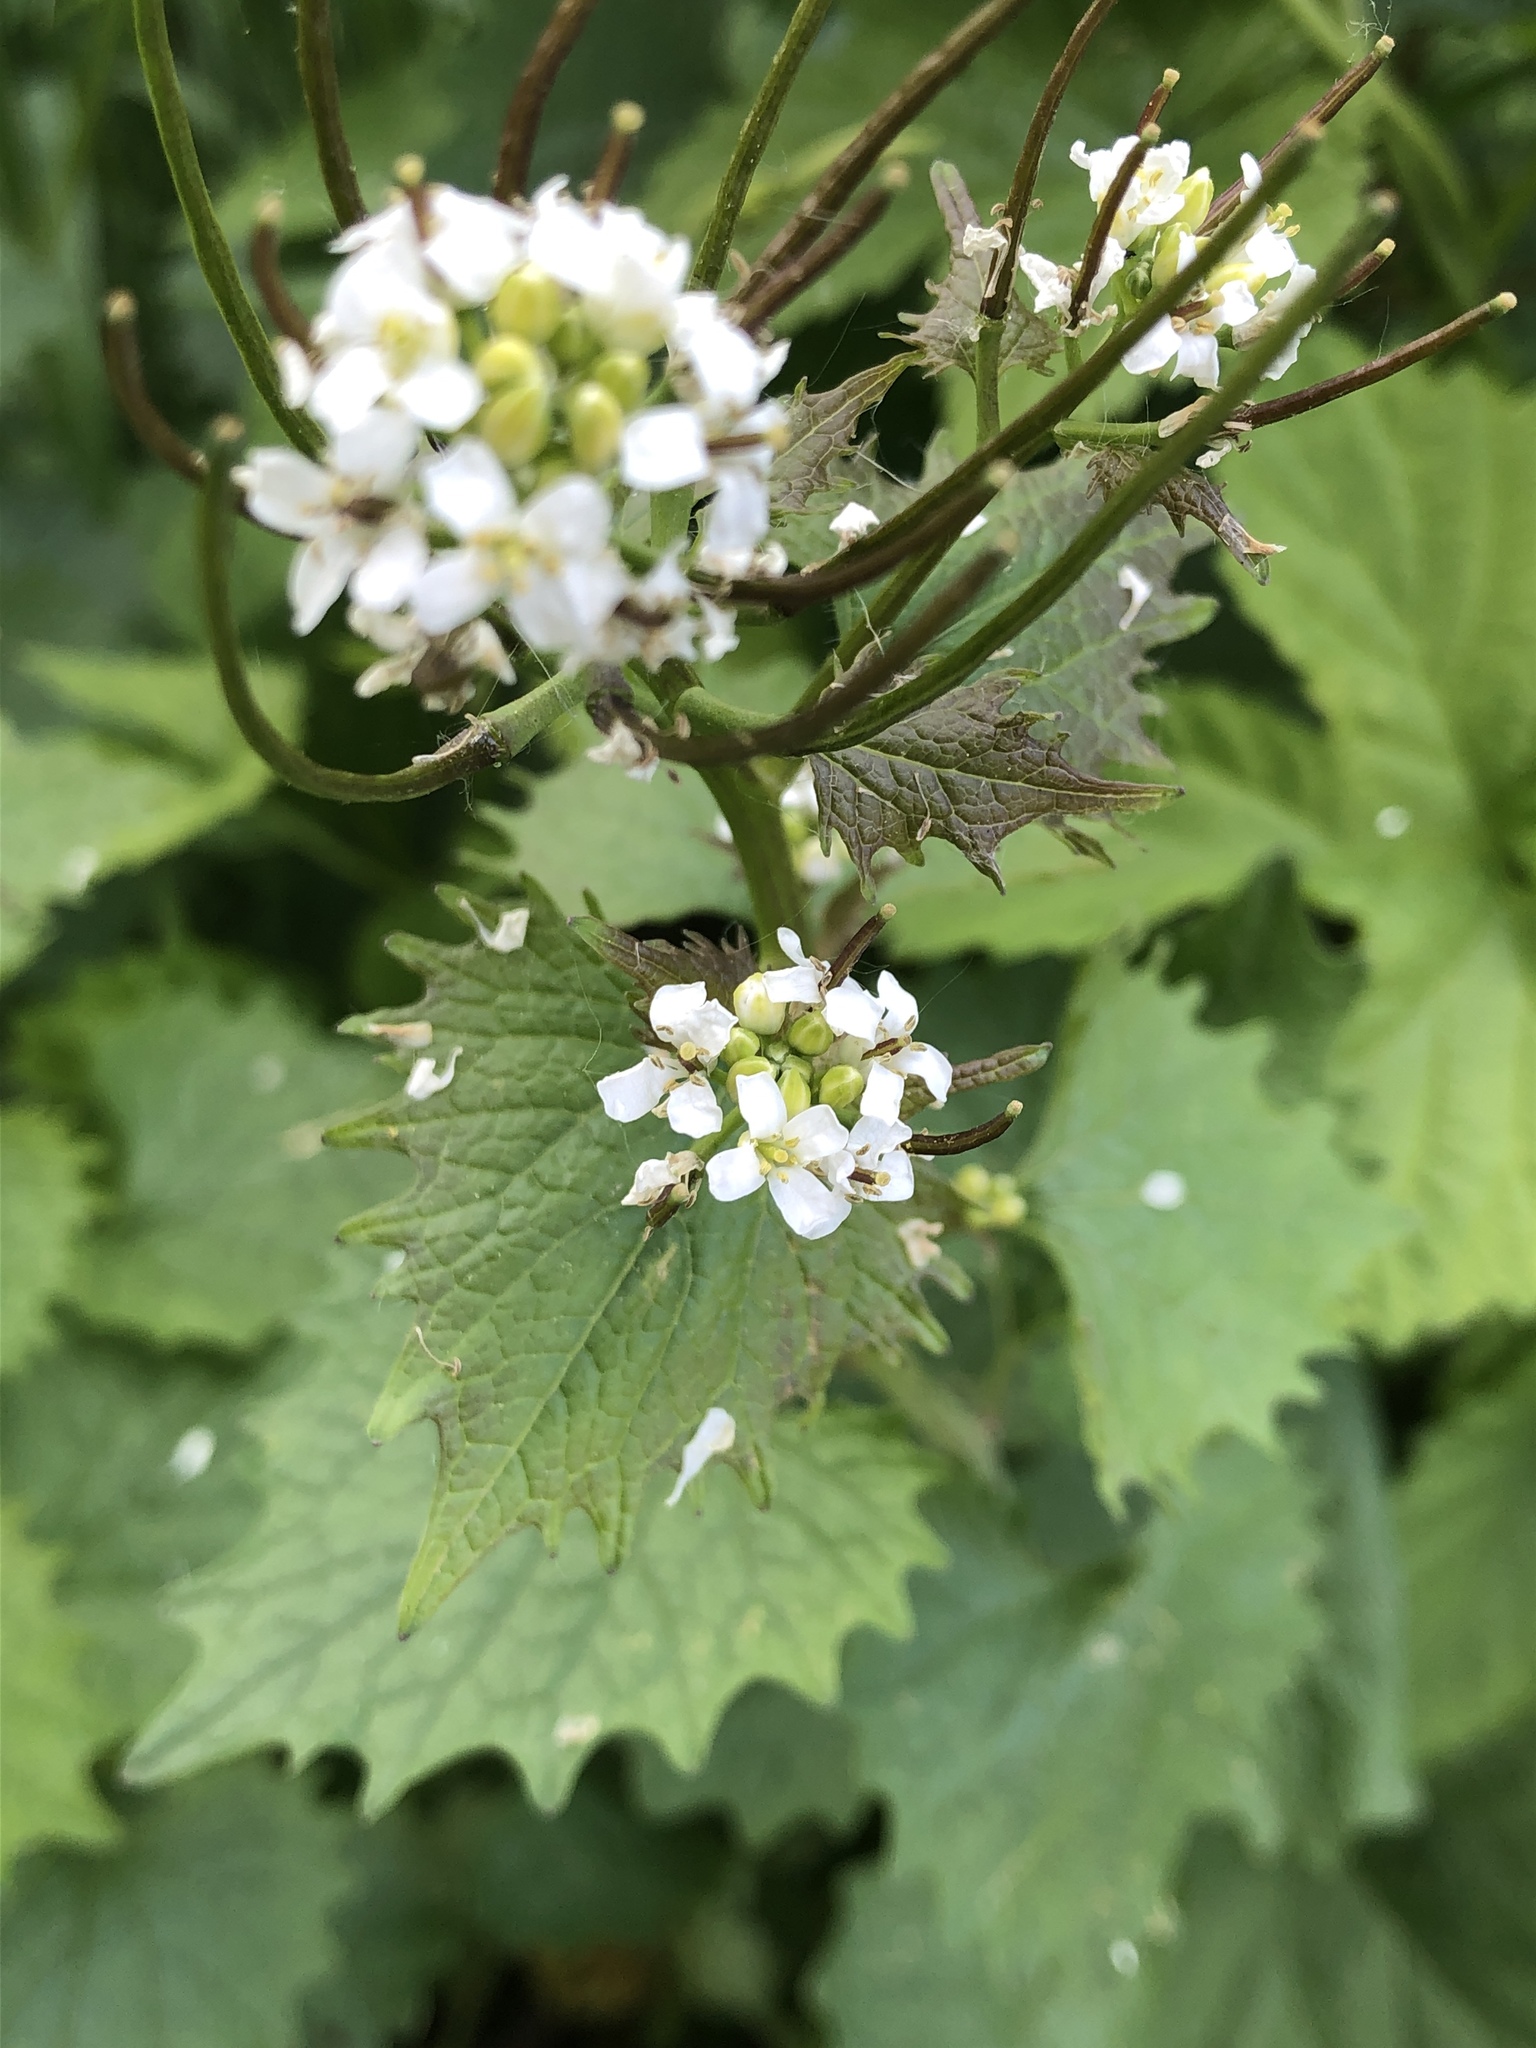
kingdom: Plantae
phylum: Tracheophyta
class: Magnoliopsida
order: Brassicales
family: Brassicaceae
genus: Alliaria
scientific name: Alliaria petiolata
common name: Garlic mustard
